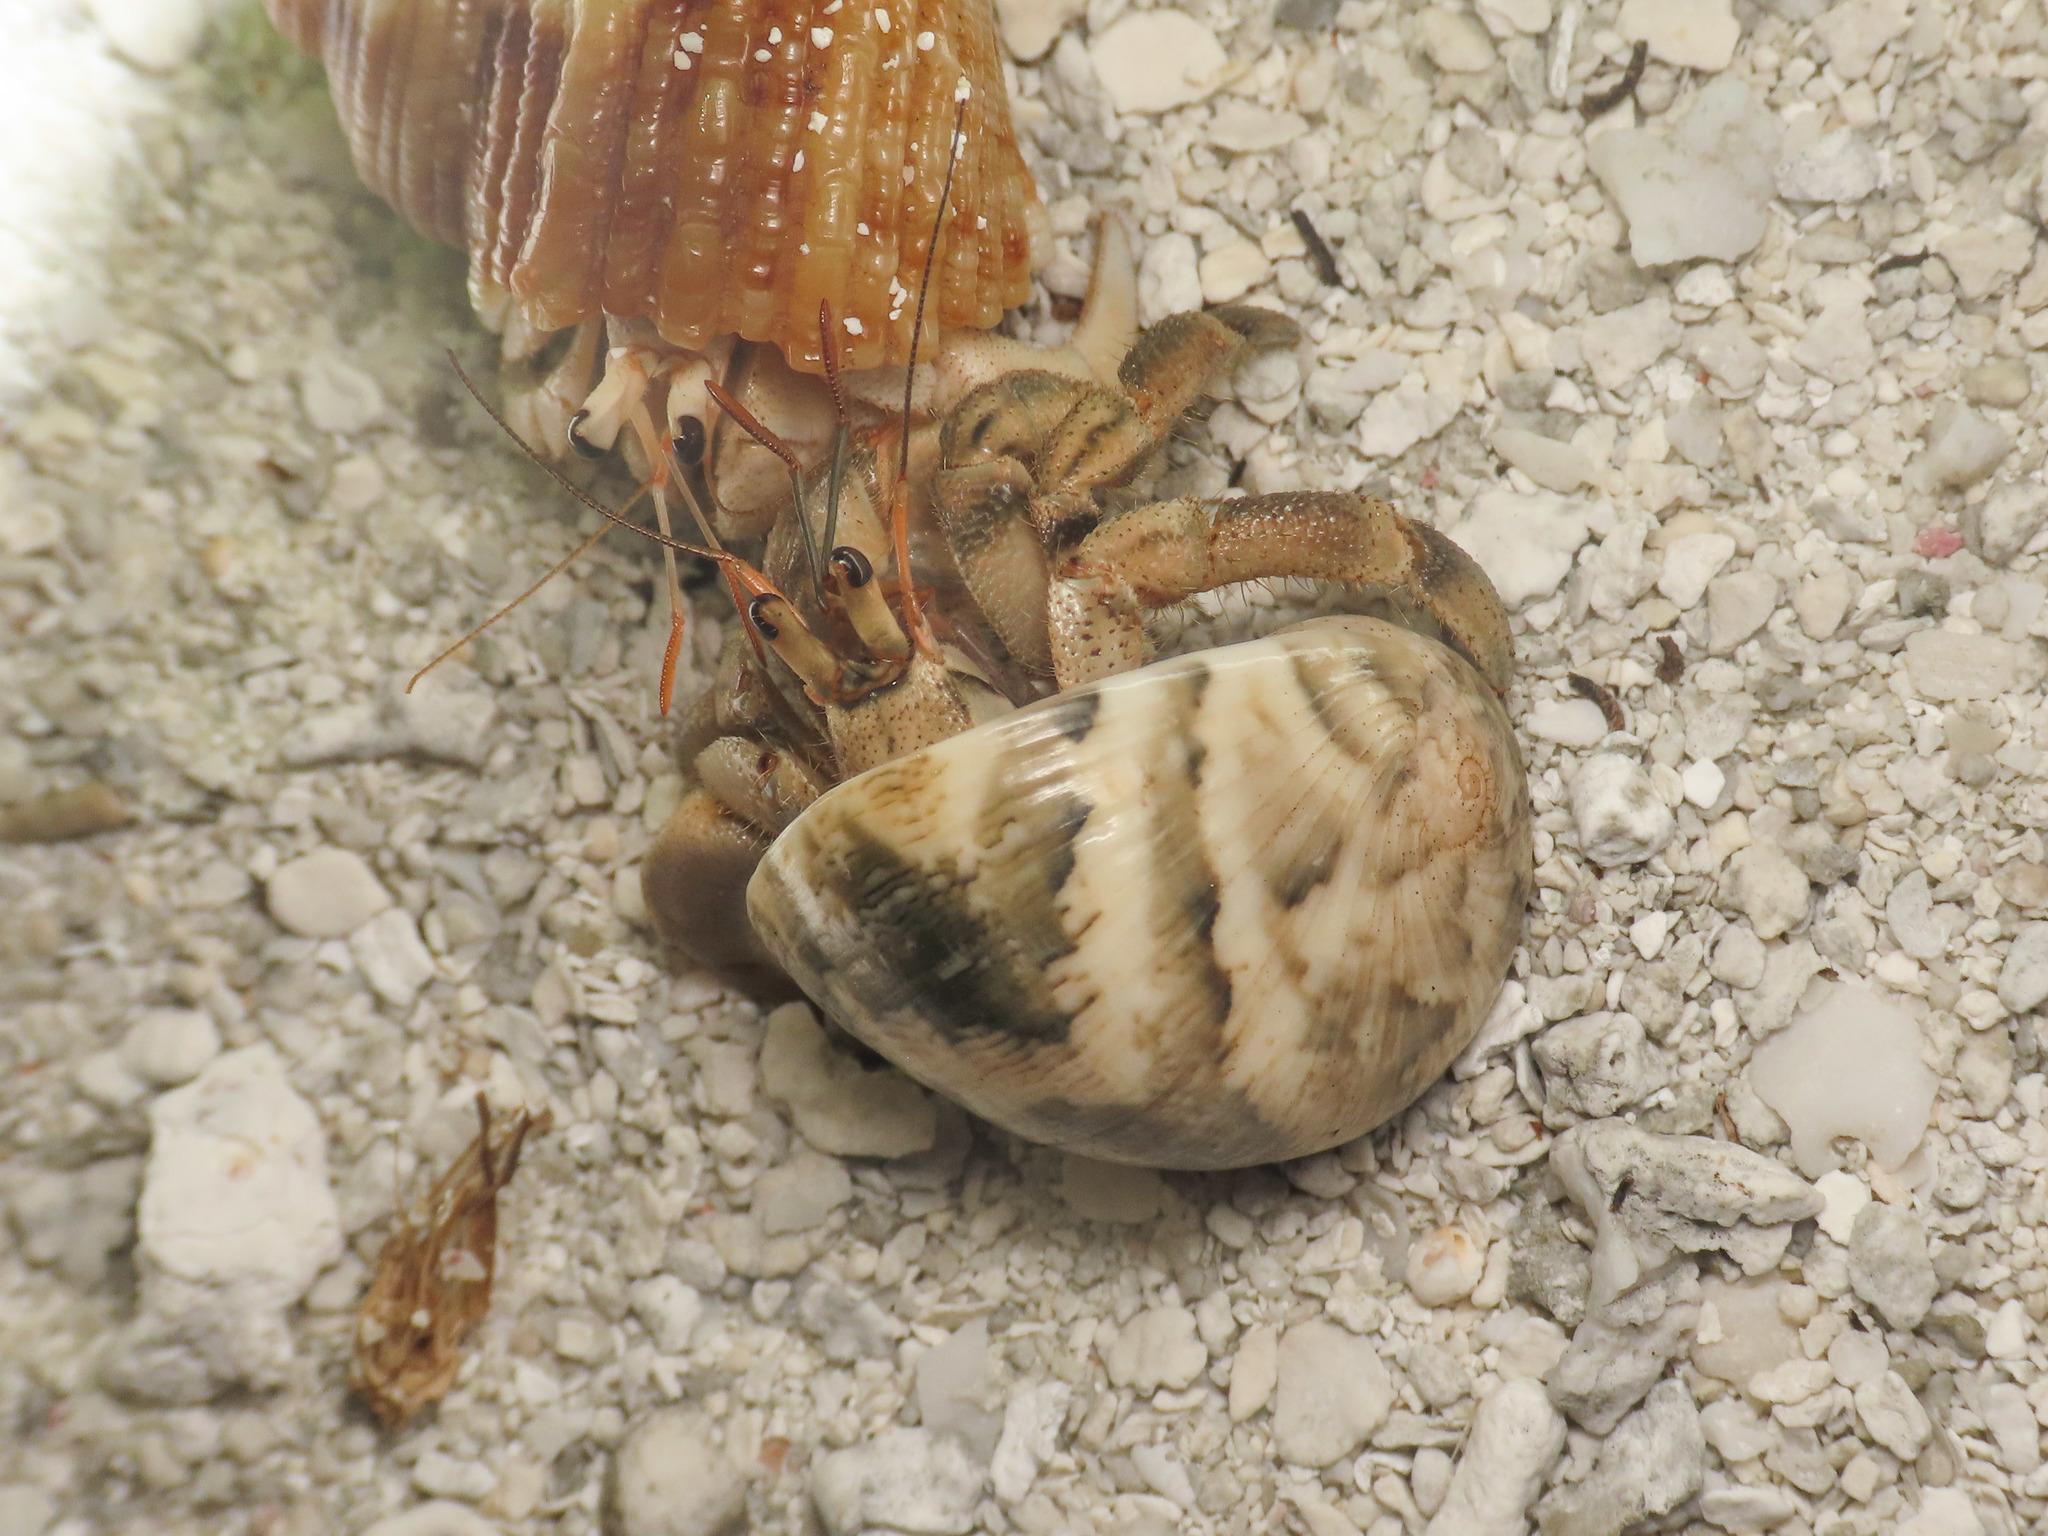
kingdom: Animalia
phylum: Mollusca
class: Gastropoda
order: Cycloneritida
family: Neritidae
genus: Nerita
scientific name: Nerita polita
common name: Polished nerite
